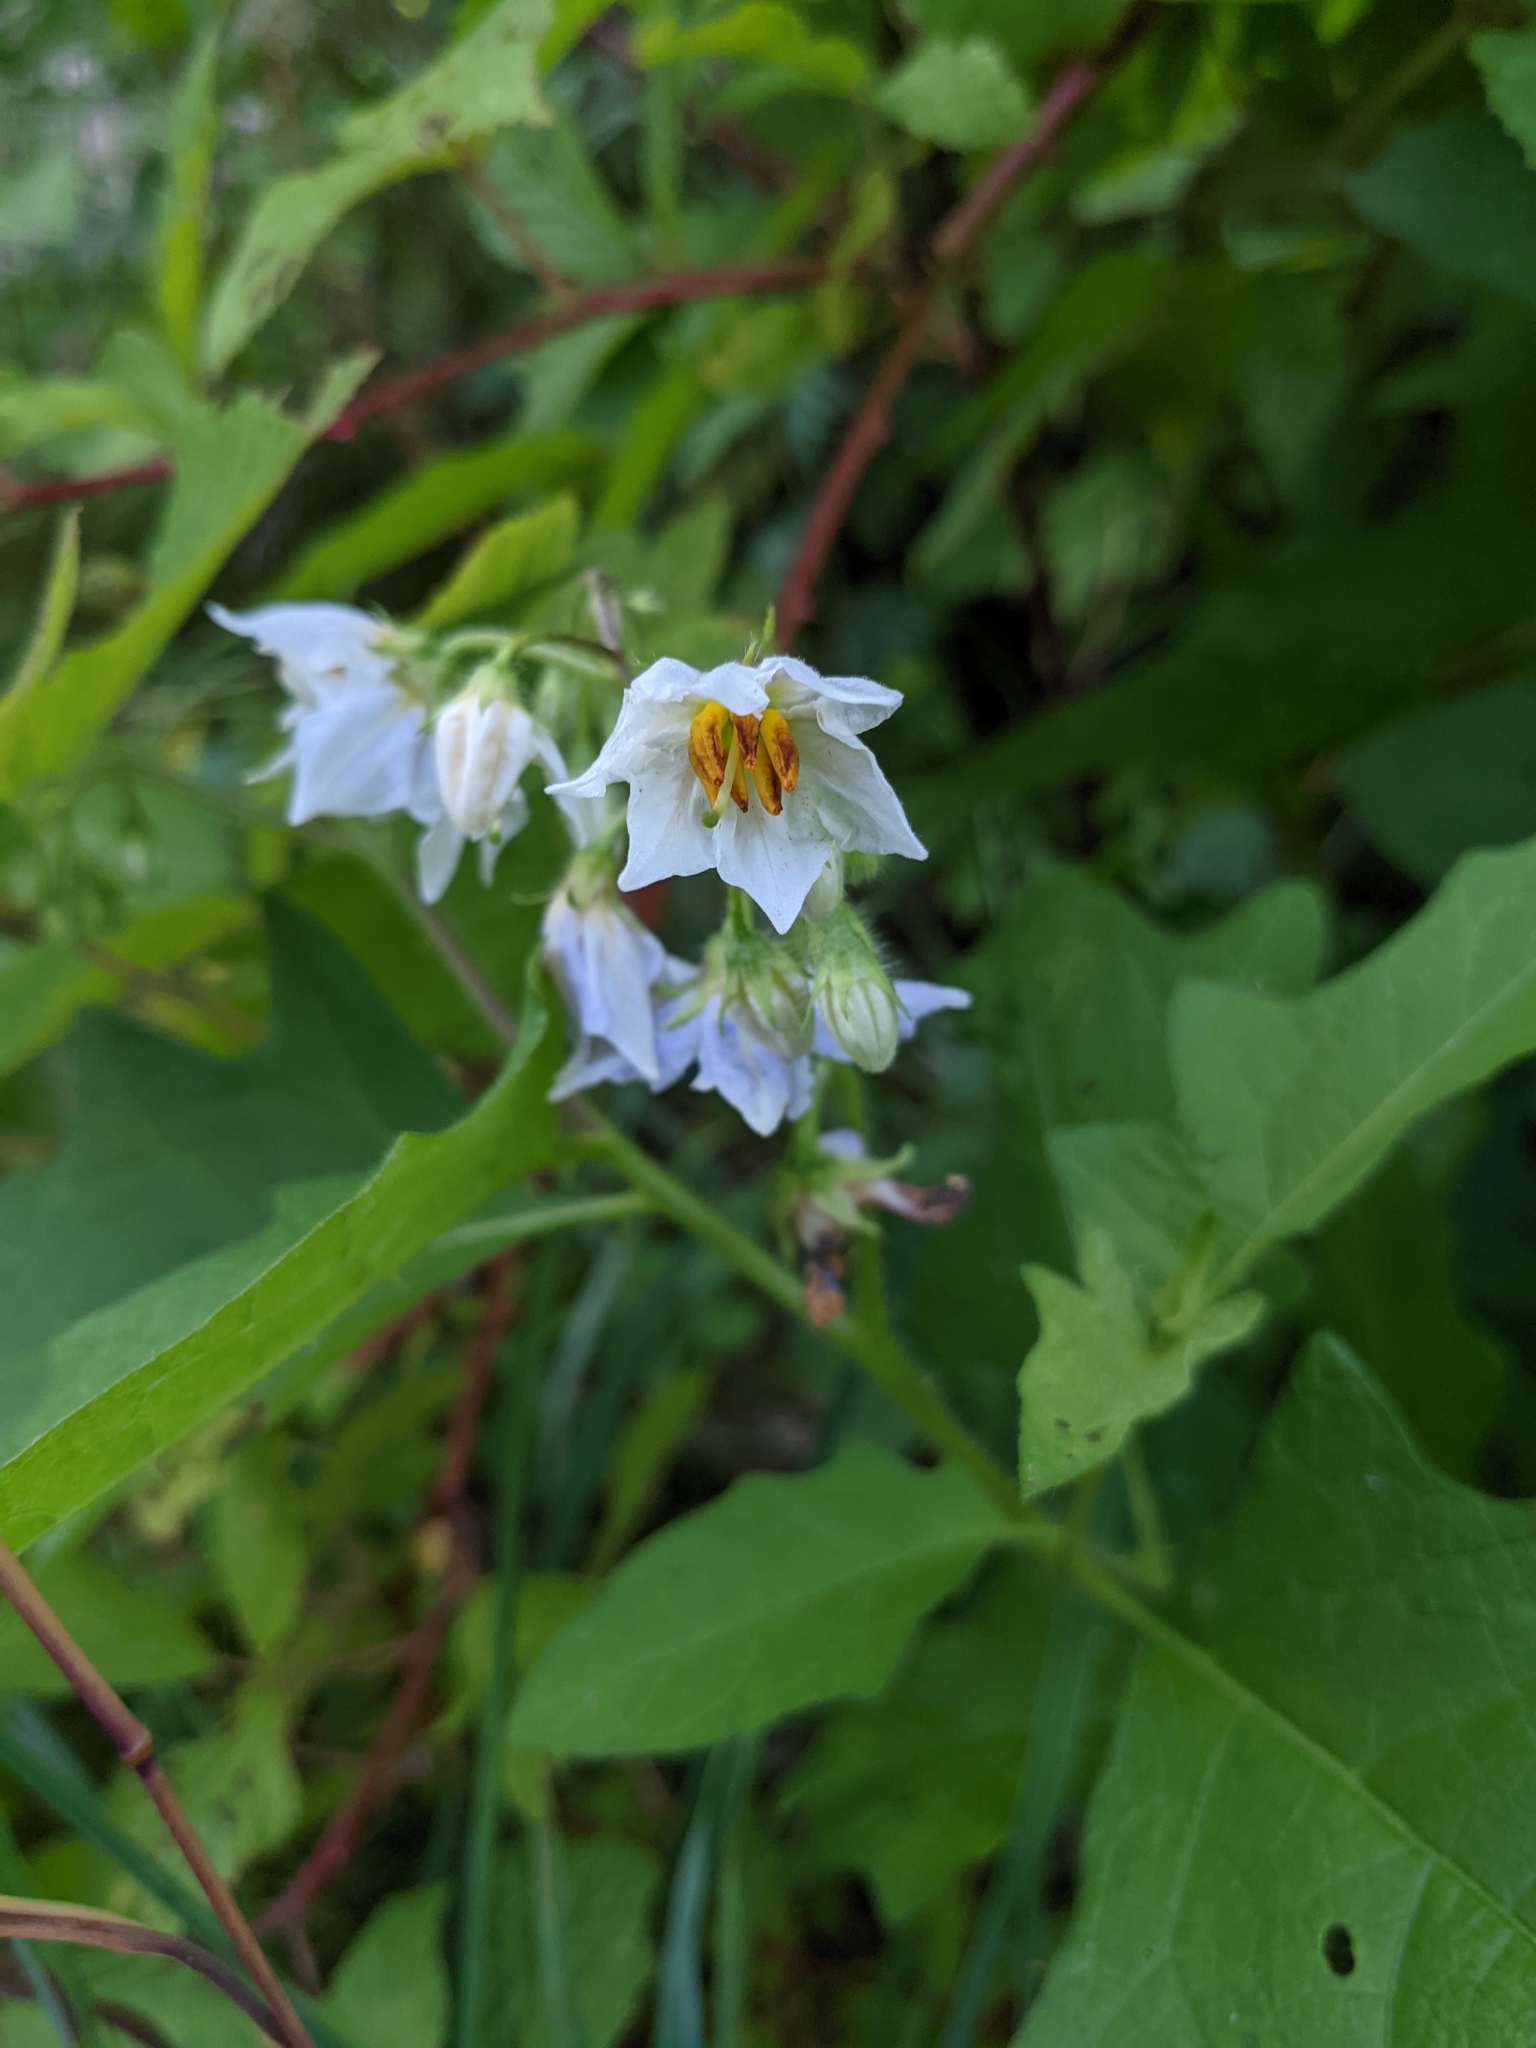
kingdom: Plantae
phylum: Tracheophyta
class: Magnoliopsida
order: Solanales
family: Solanaceae
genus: Solanum
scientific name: Solanum carolinense
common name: Horse-nettle
